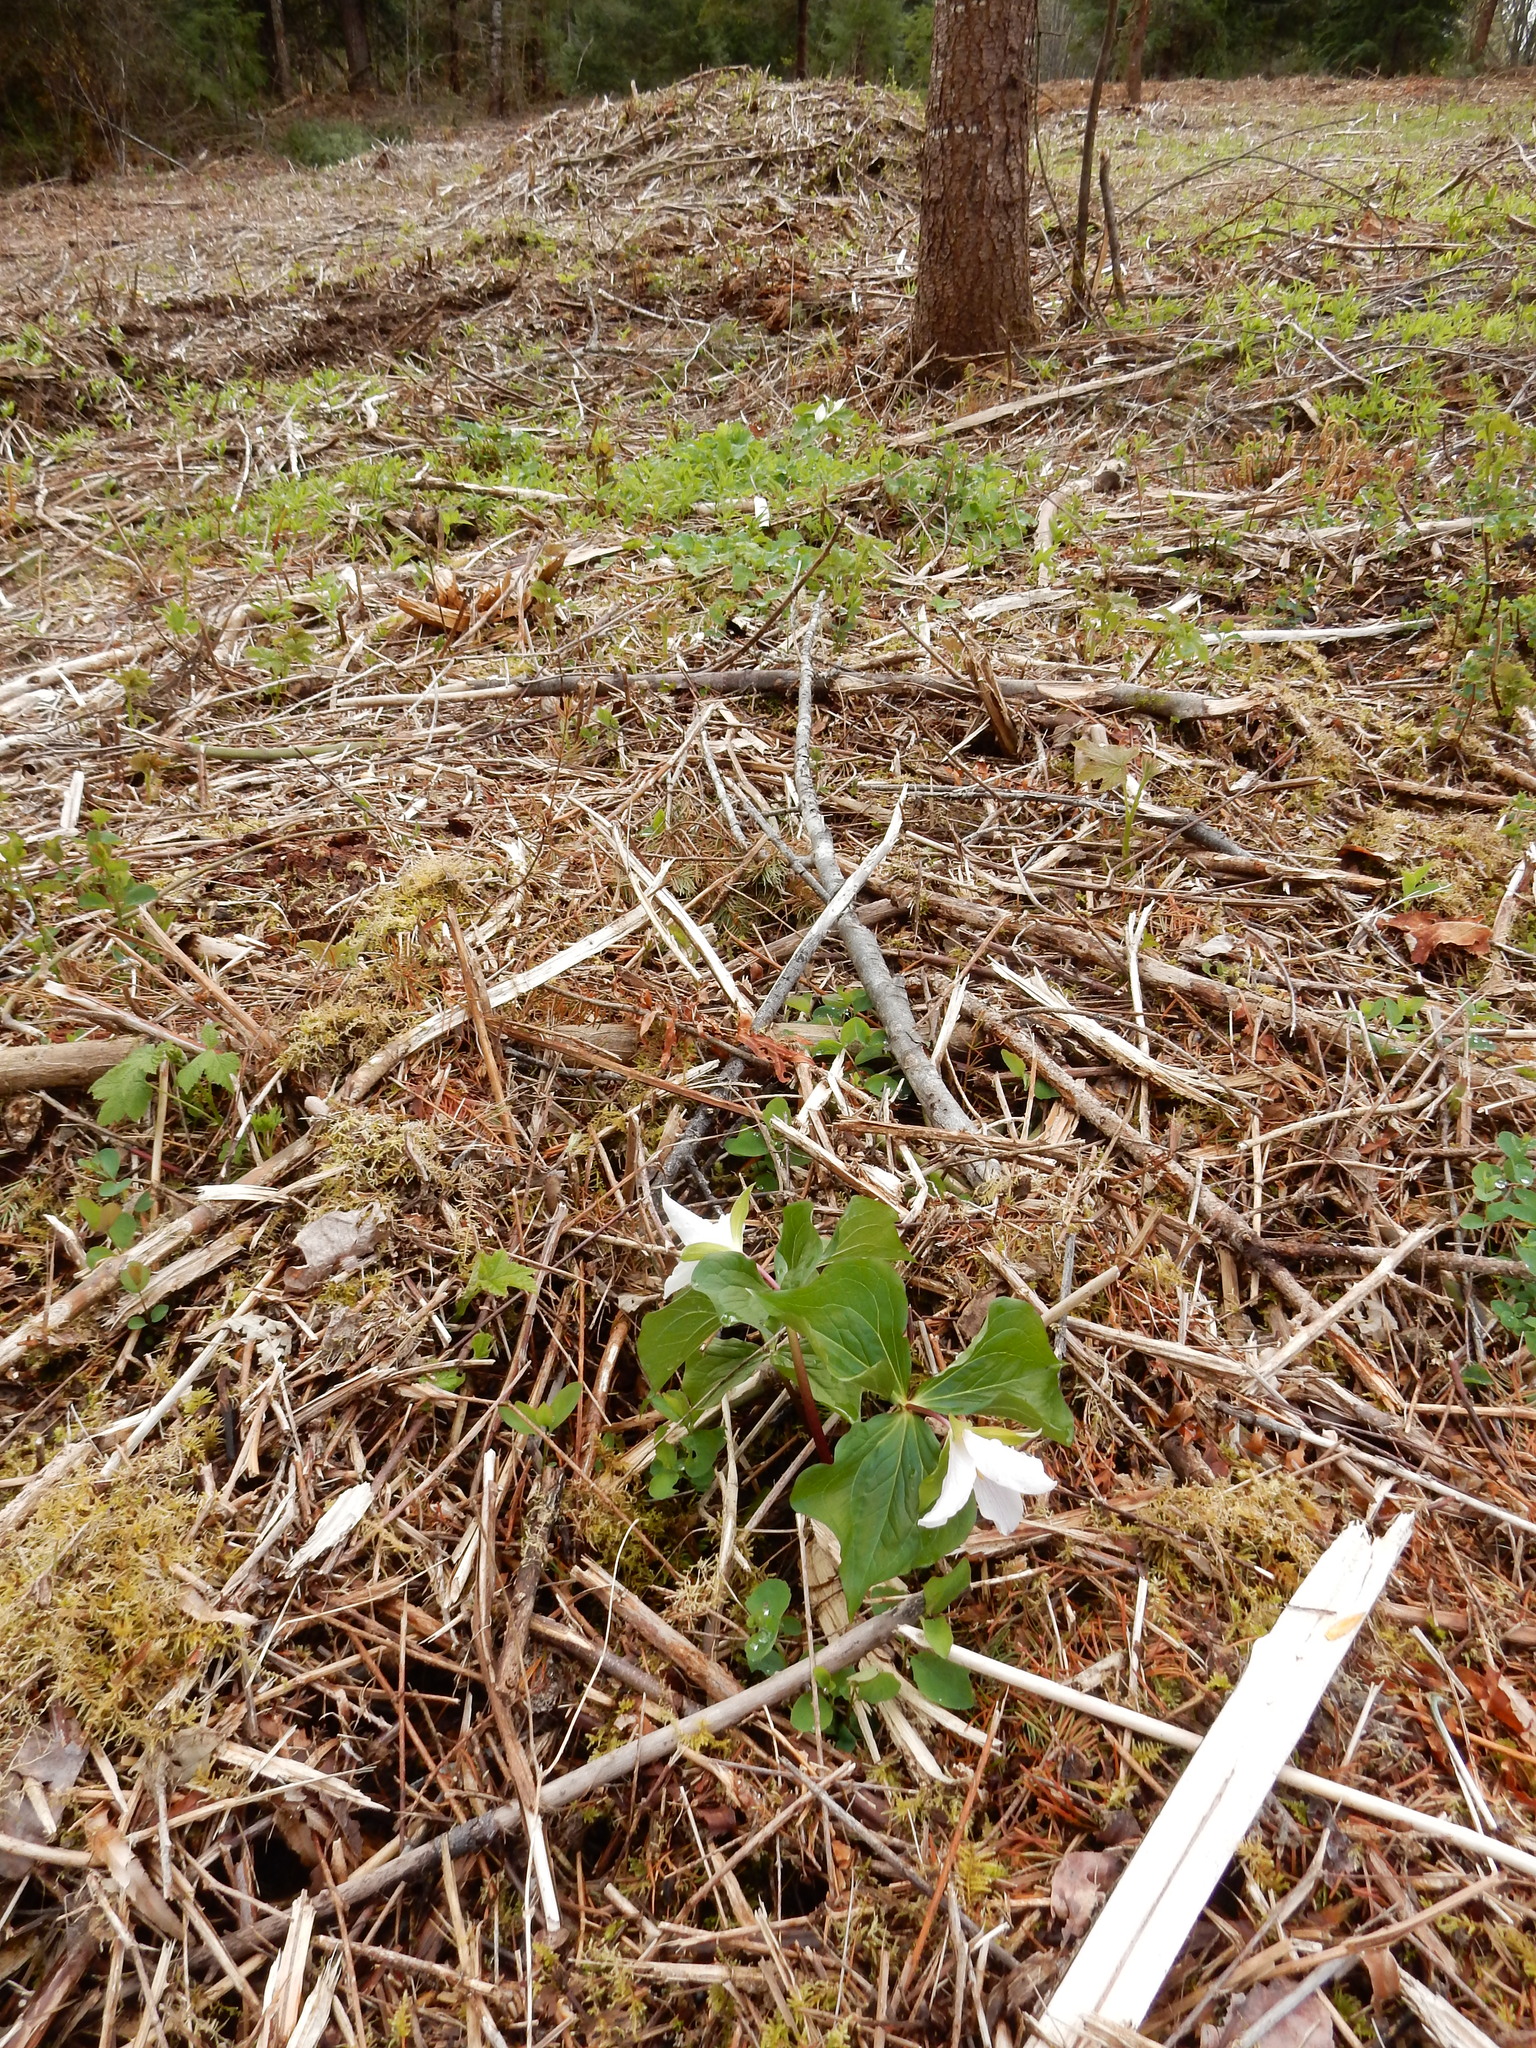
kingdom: Plantae
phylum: Tracheophyta
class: Liliopsida
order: Liliales
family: Melanthiaceae
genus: Trillium
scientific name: Trillium ovatum
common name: Pacific trillium
